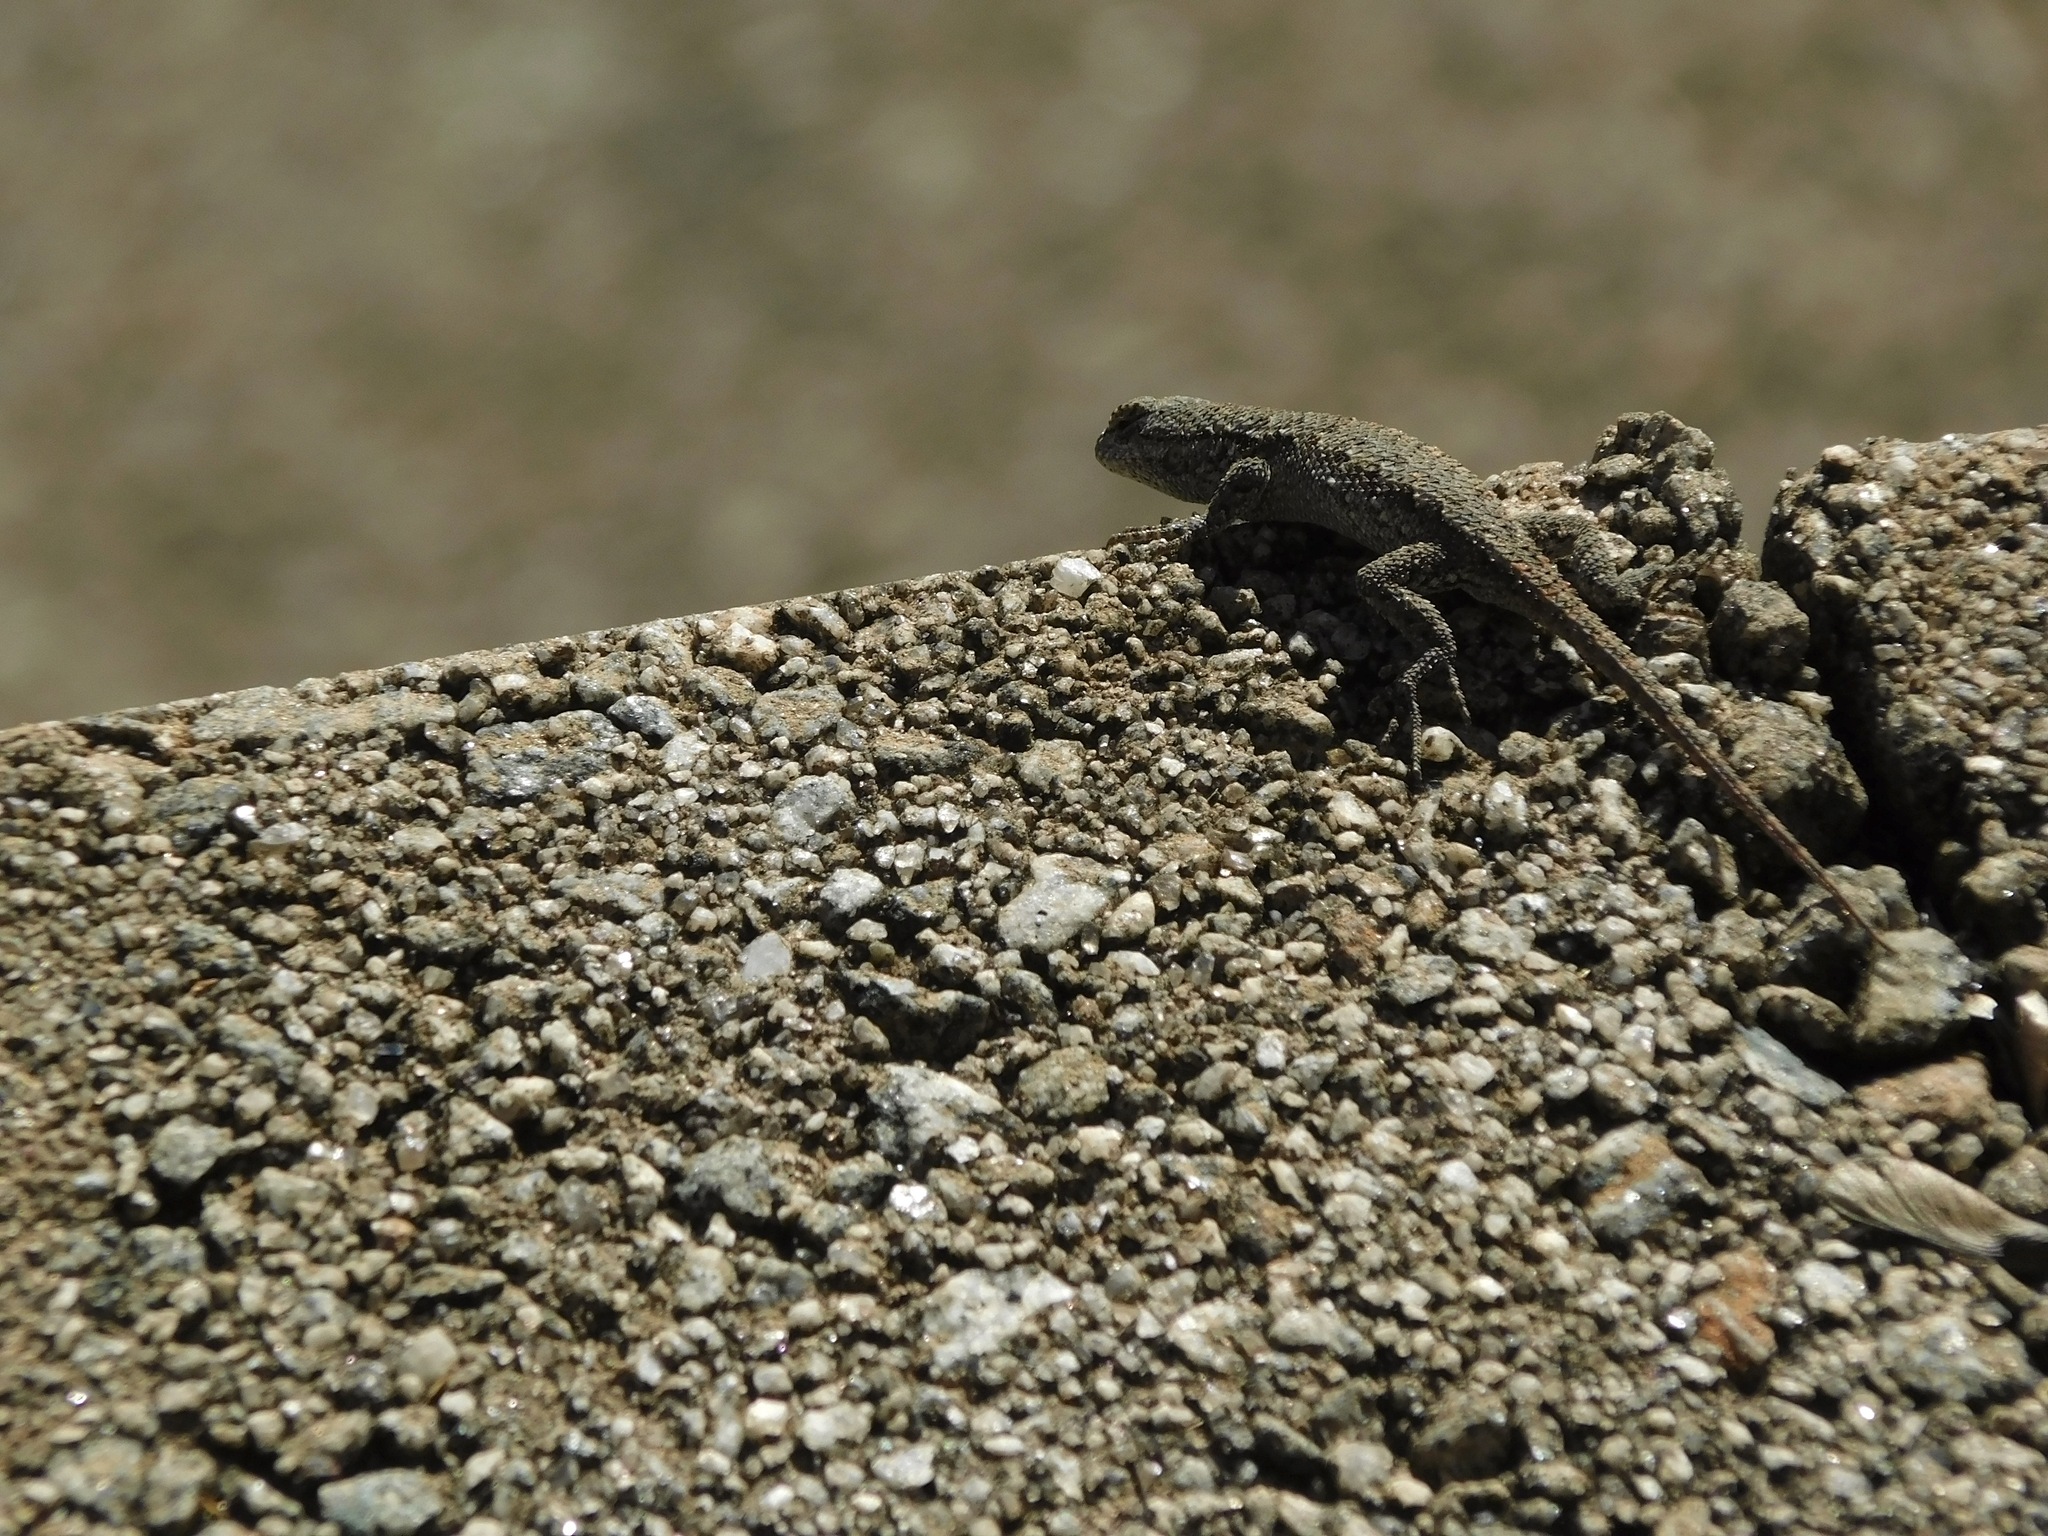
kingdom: Animalia
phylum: Chordata
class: Squamata
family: Phrynosomatidae
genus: Sceloporus
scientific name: Sceloporus undulatus
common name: Eastern fence lizard
